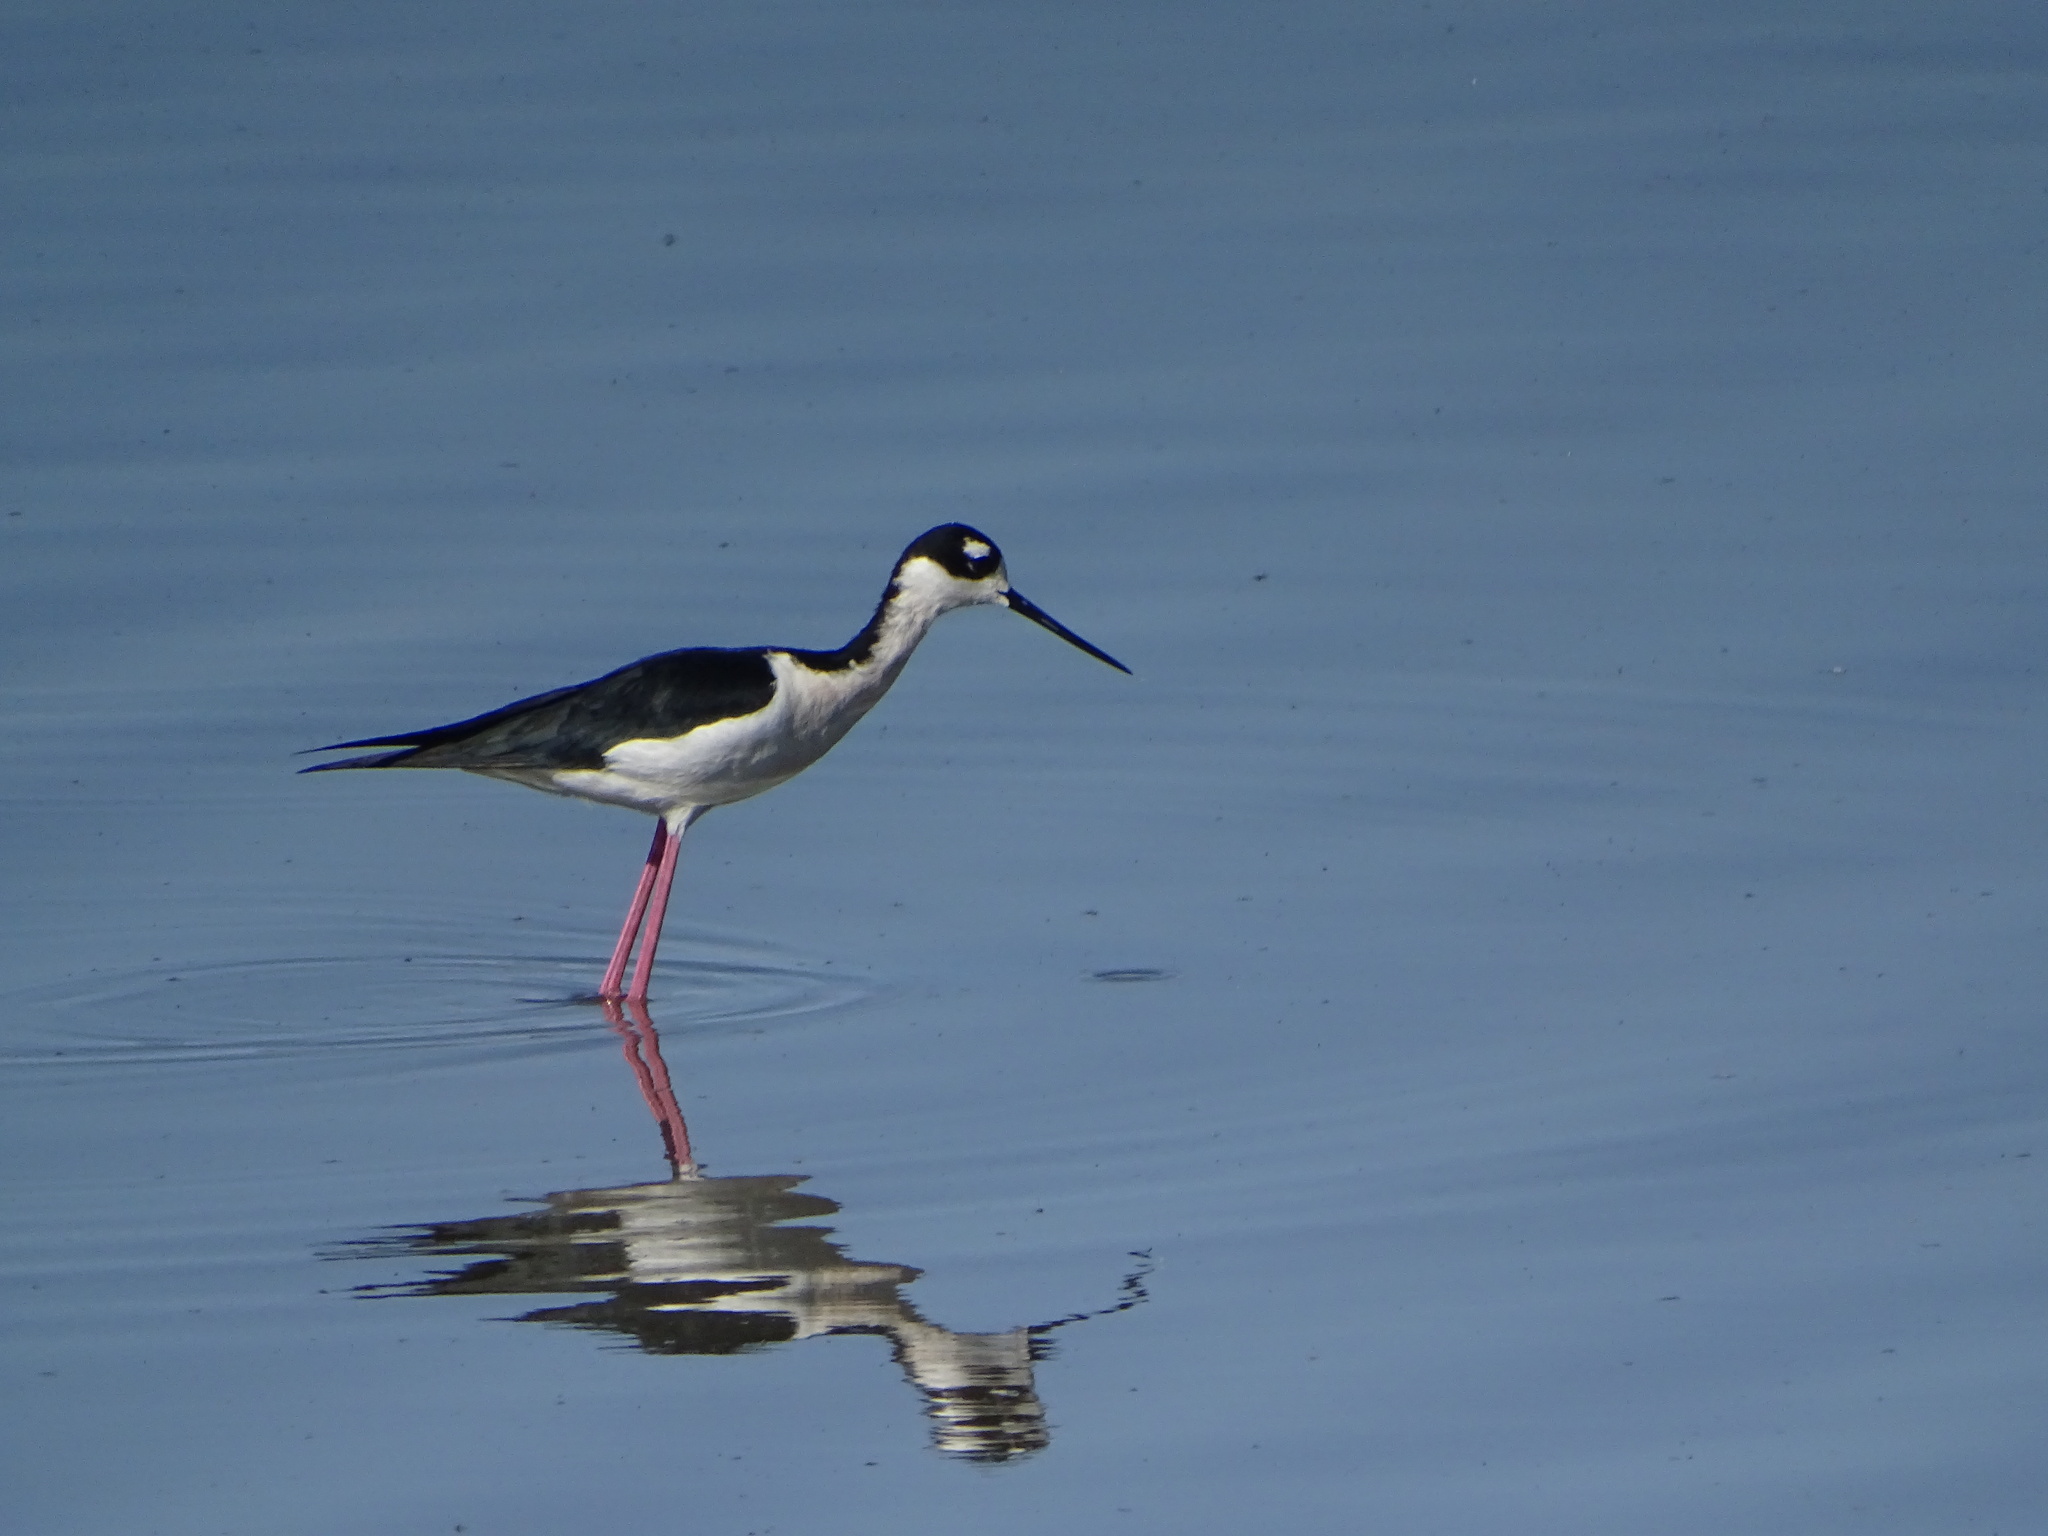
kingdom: Animalia
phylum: Chordata
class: Aves
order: Charadriiformes
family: Recurvirostridae
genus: Himantopus
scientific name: Himantopus mexicanus
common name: Black-necked stilt
